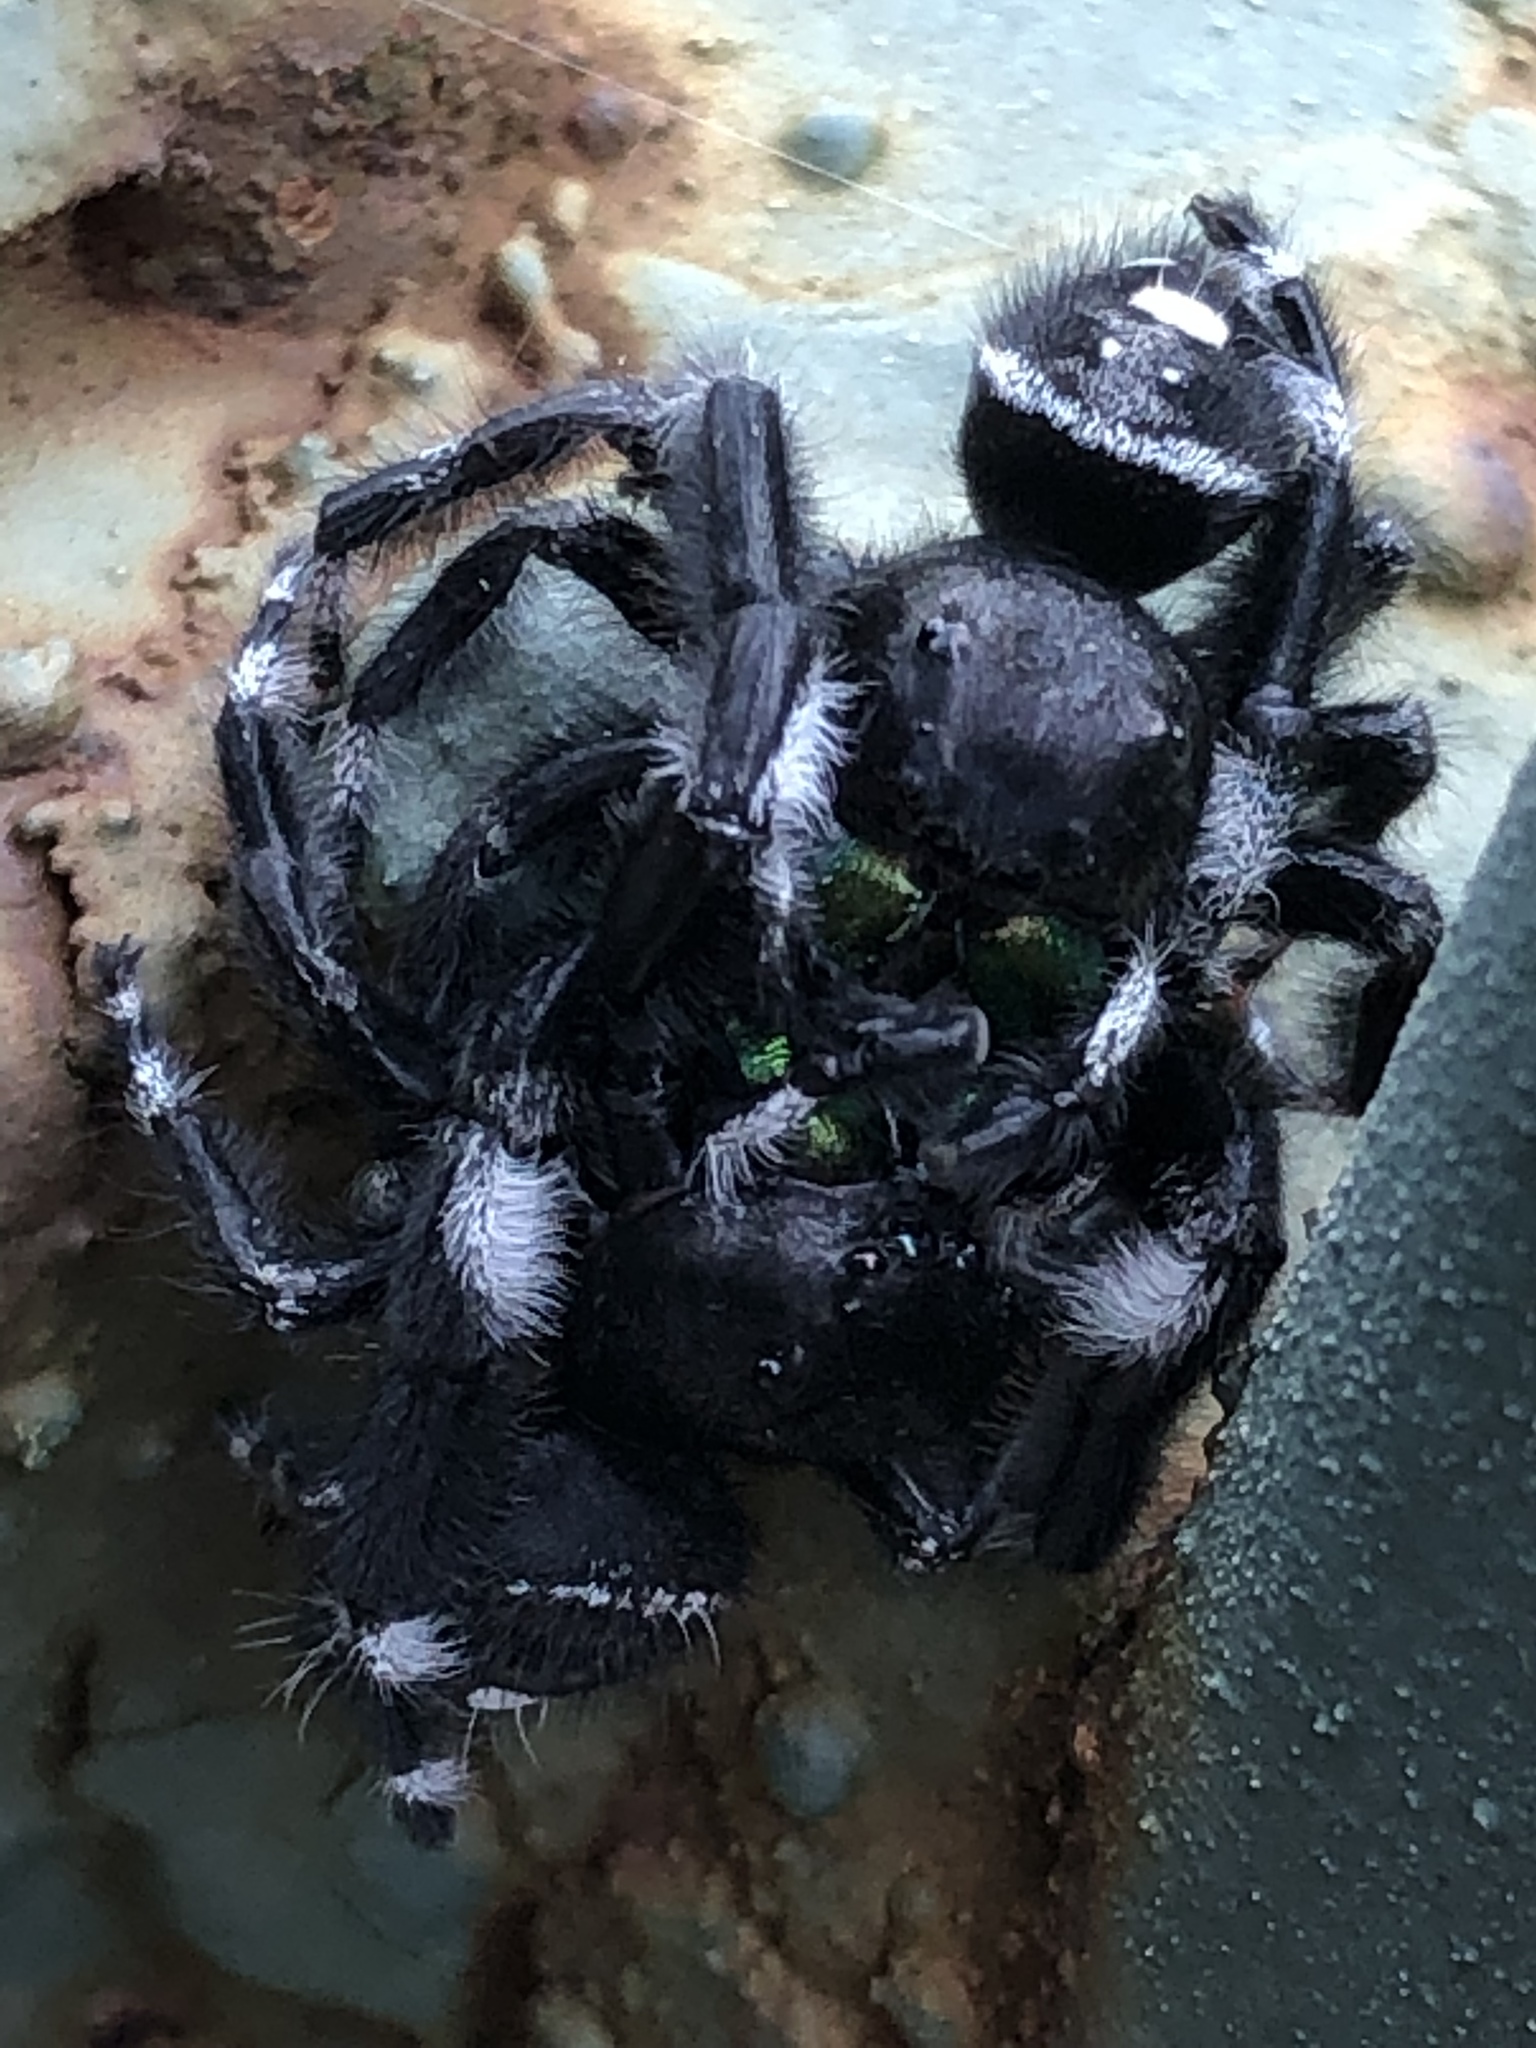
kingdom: Animalia
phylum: Arthropoda
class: Arachnida
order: Araneae
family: Salticidae
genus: Phidippus
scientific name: Phidippus audax
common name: Bold jumper
